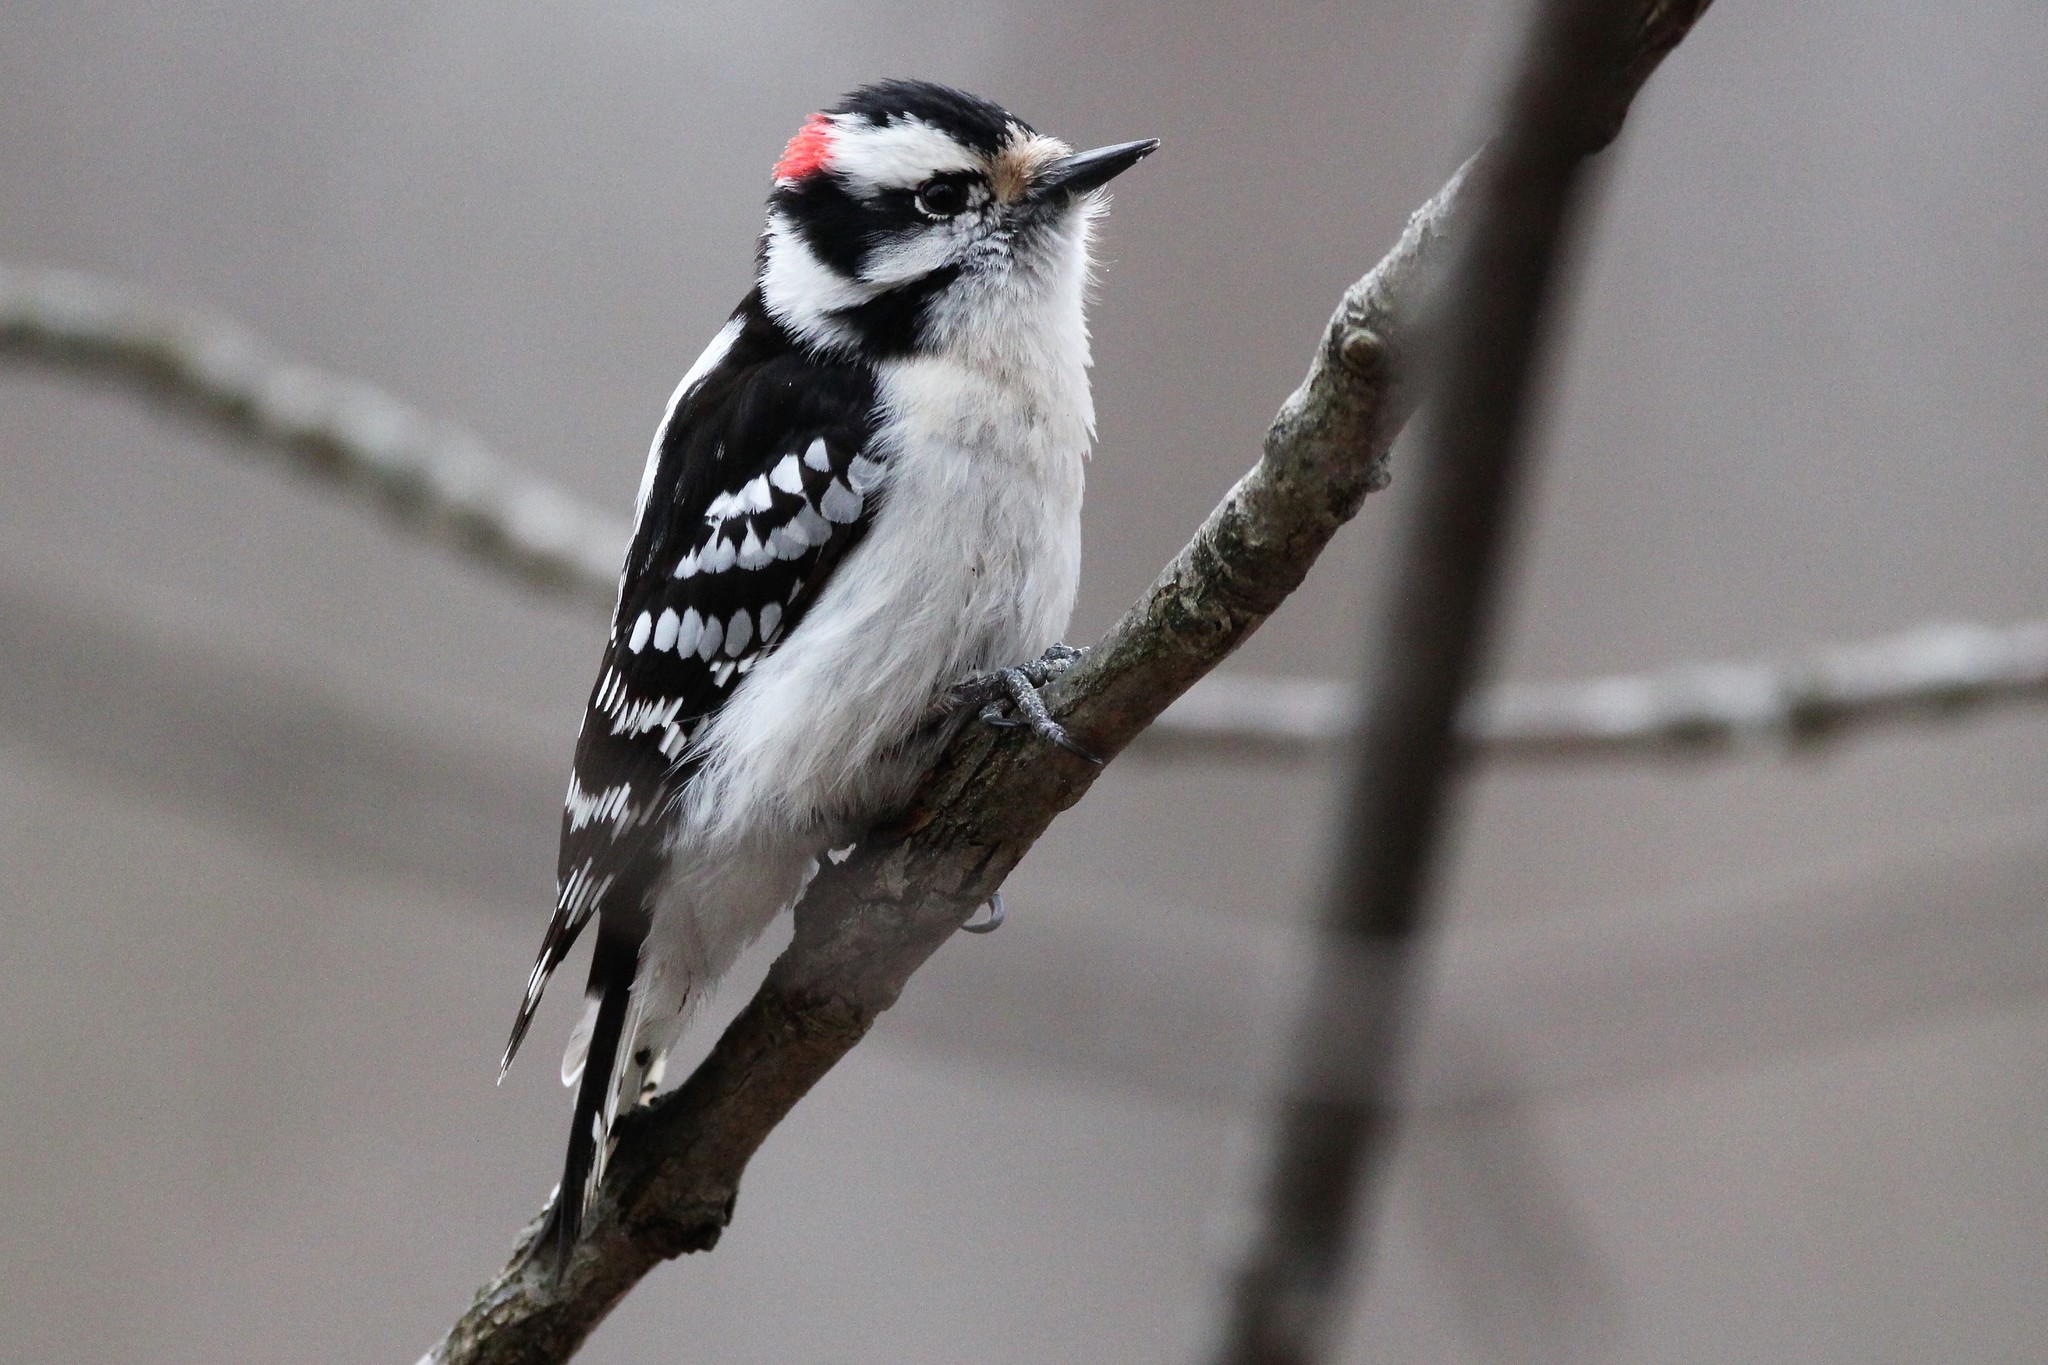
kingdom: Animalia
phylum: Chordata
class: Aves
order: Piciformes
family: Picidae
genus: Dryobates
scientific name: Dryobates pubescens
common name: Downy woodpecker
